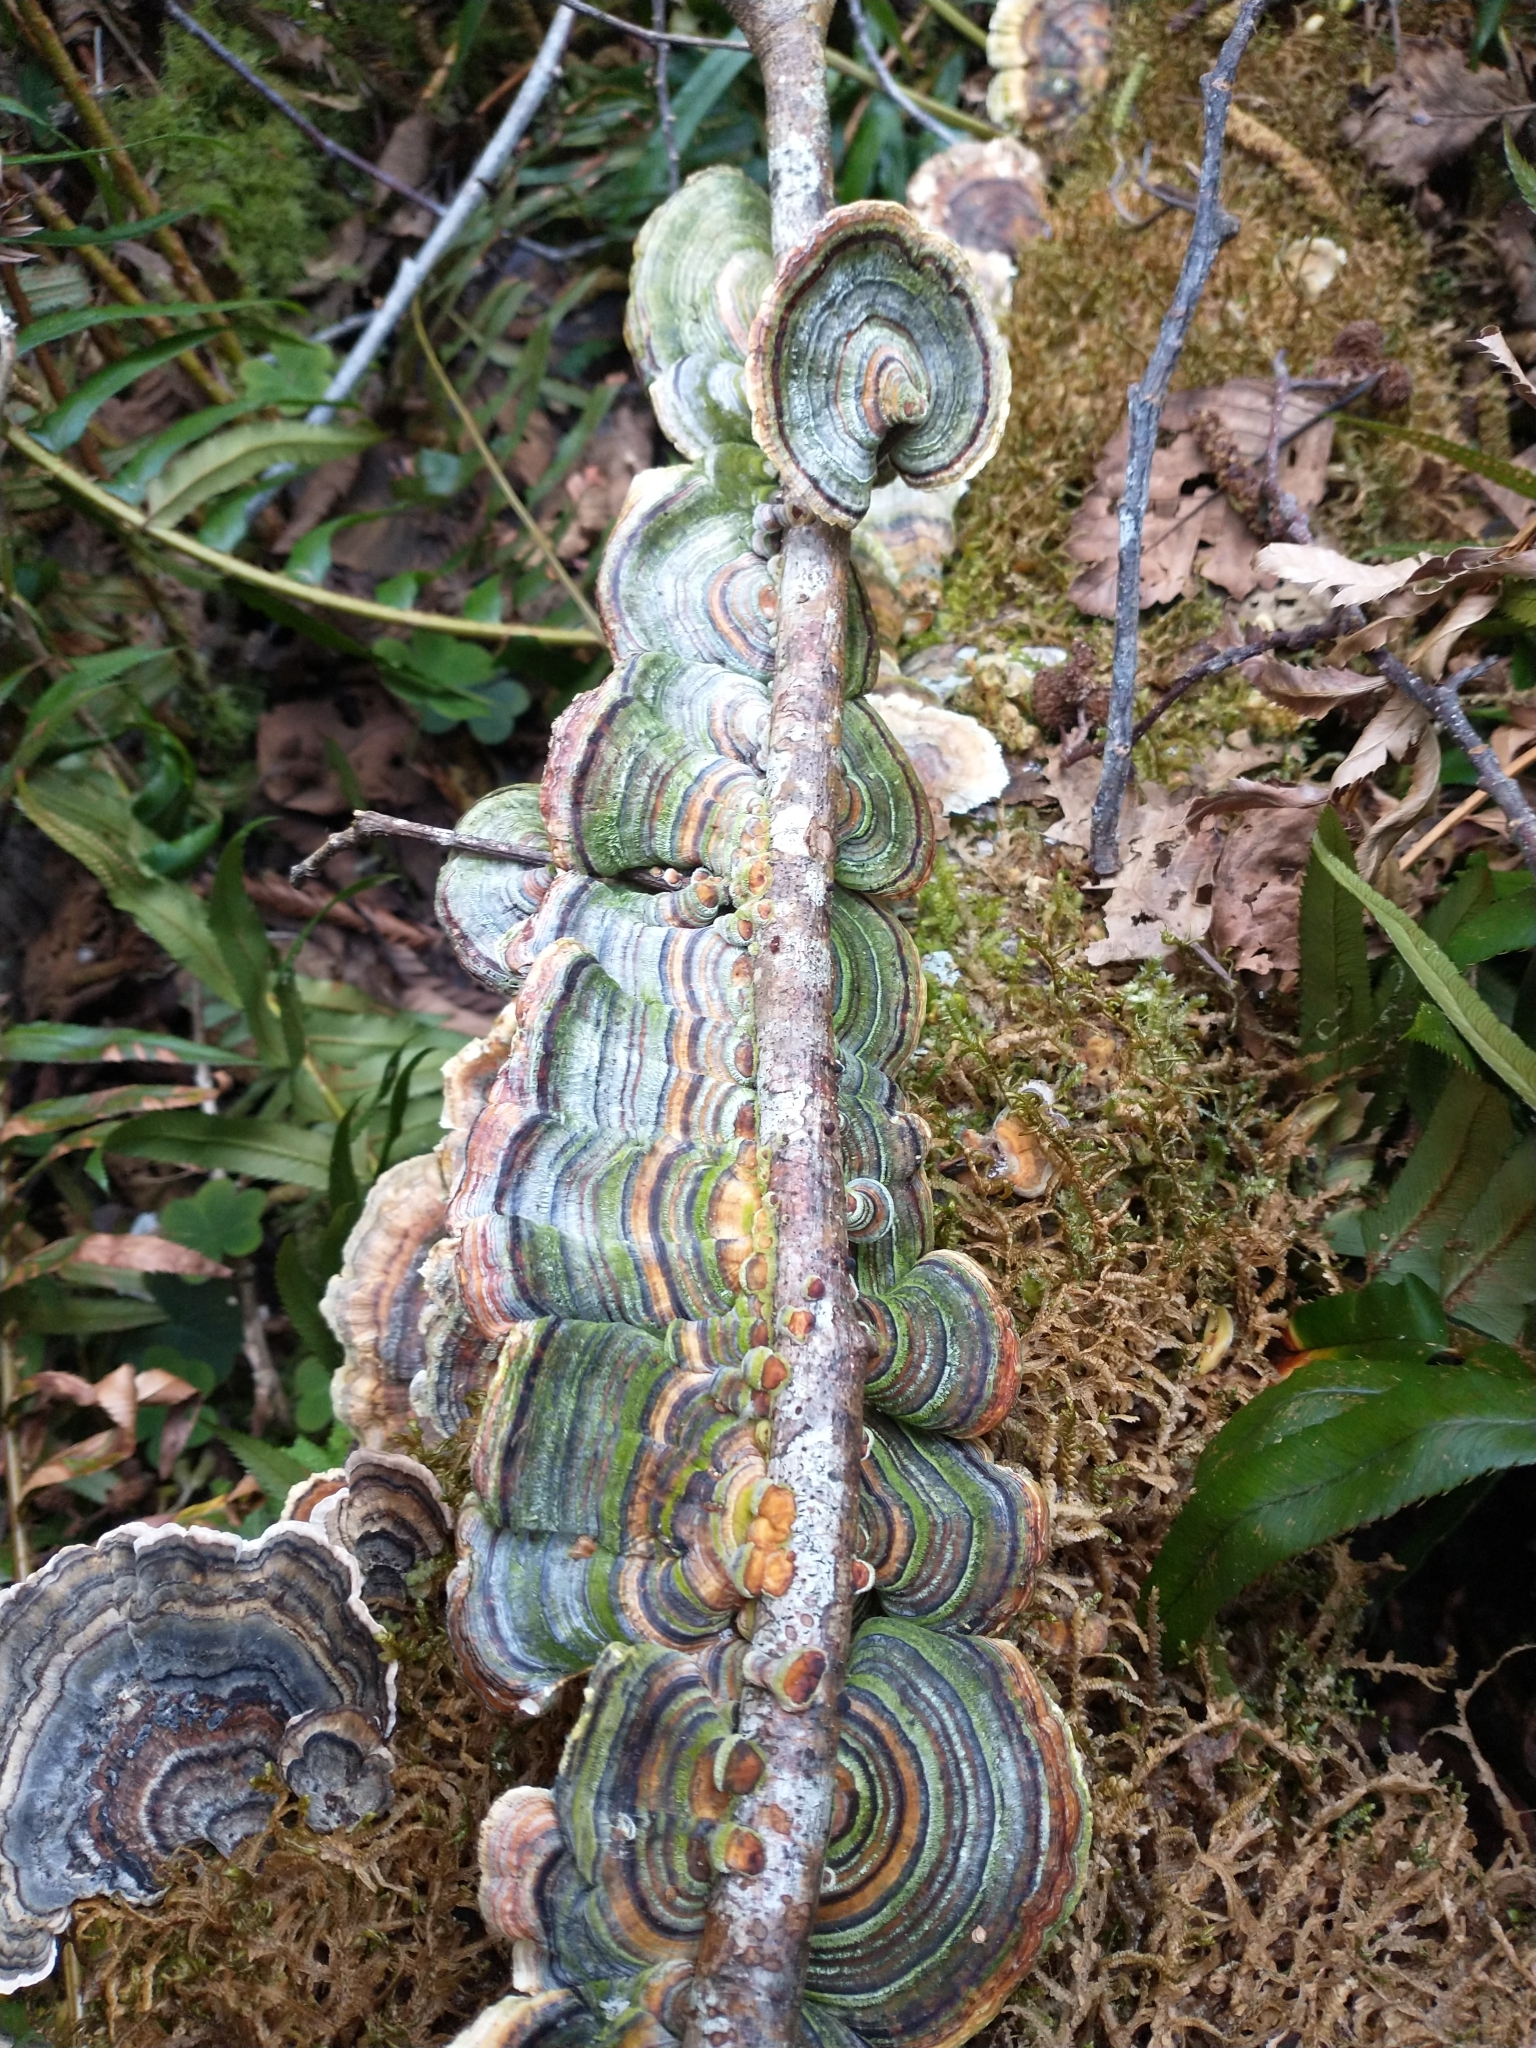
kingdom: Fungi
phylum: Basidiomycota
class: Agaricomycetes
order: Polyporales
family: Polyporaceae
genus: Trametes
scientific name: Trametes versicolor
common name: Turkeytail
